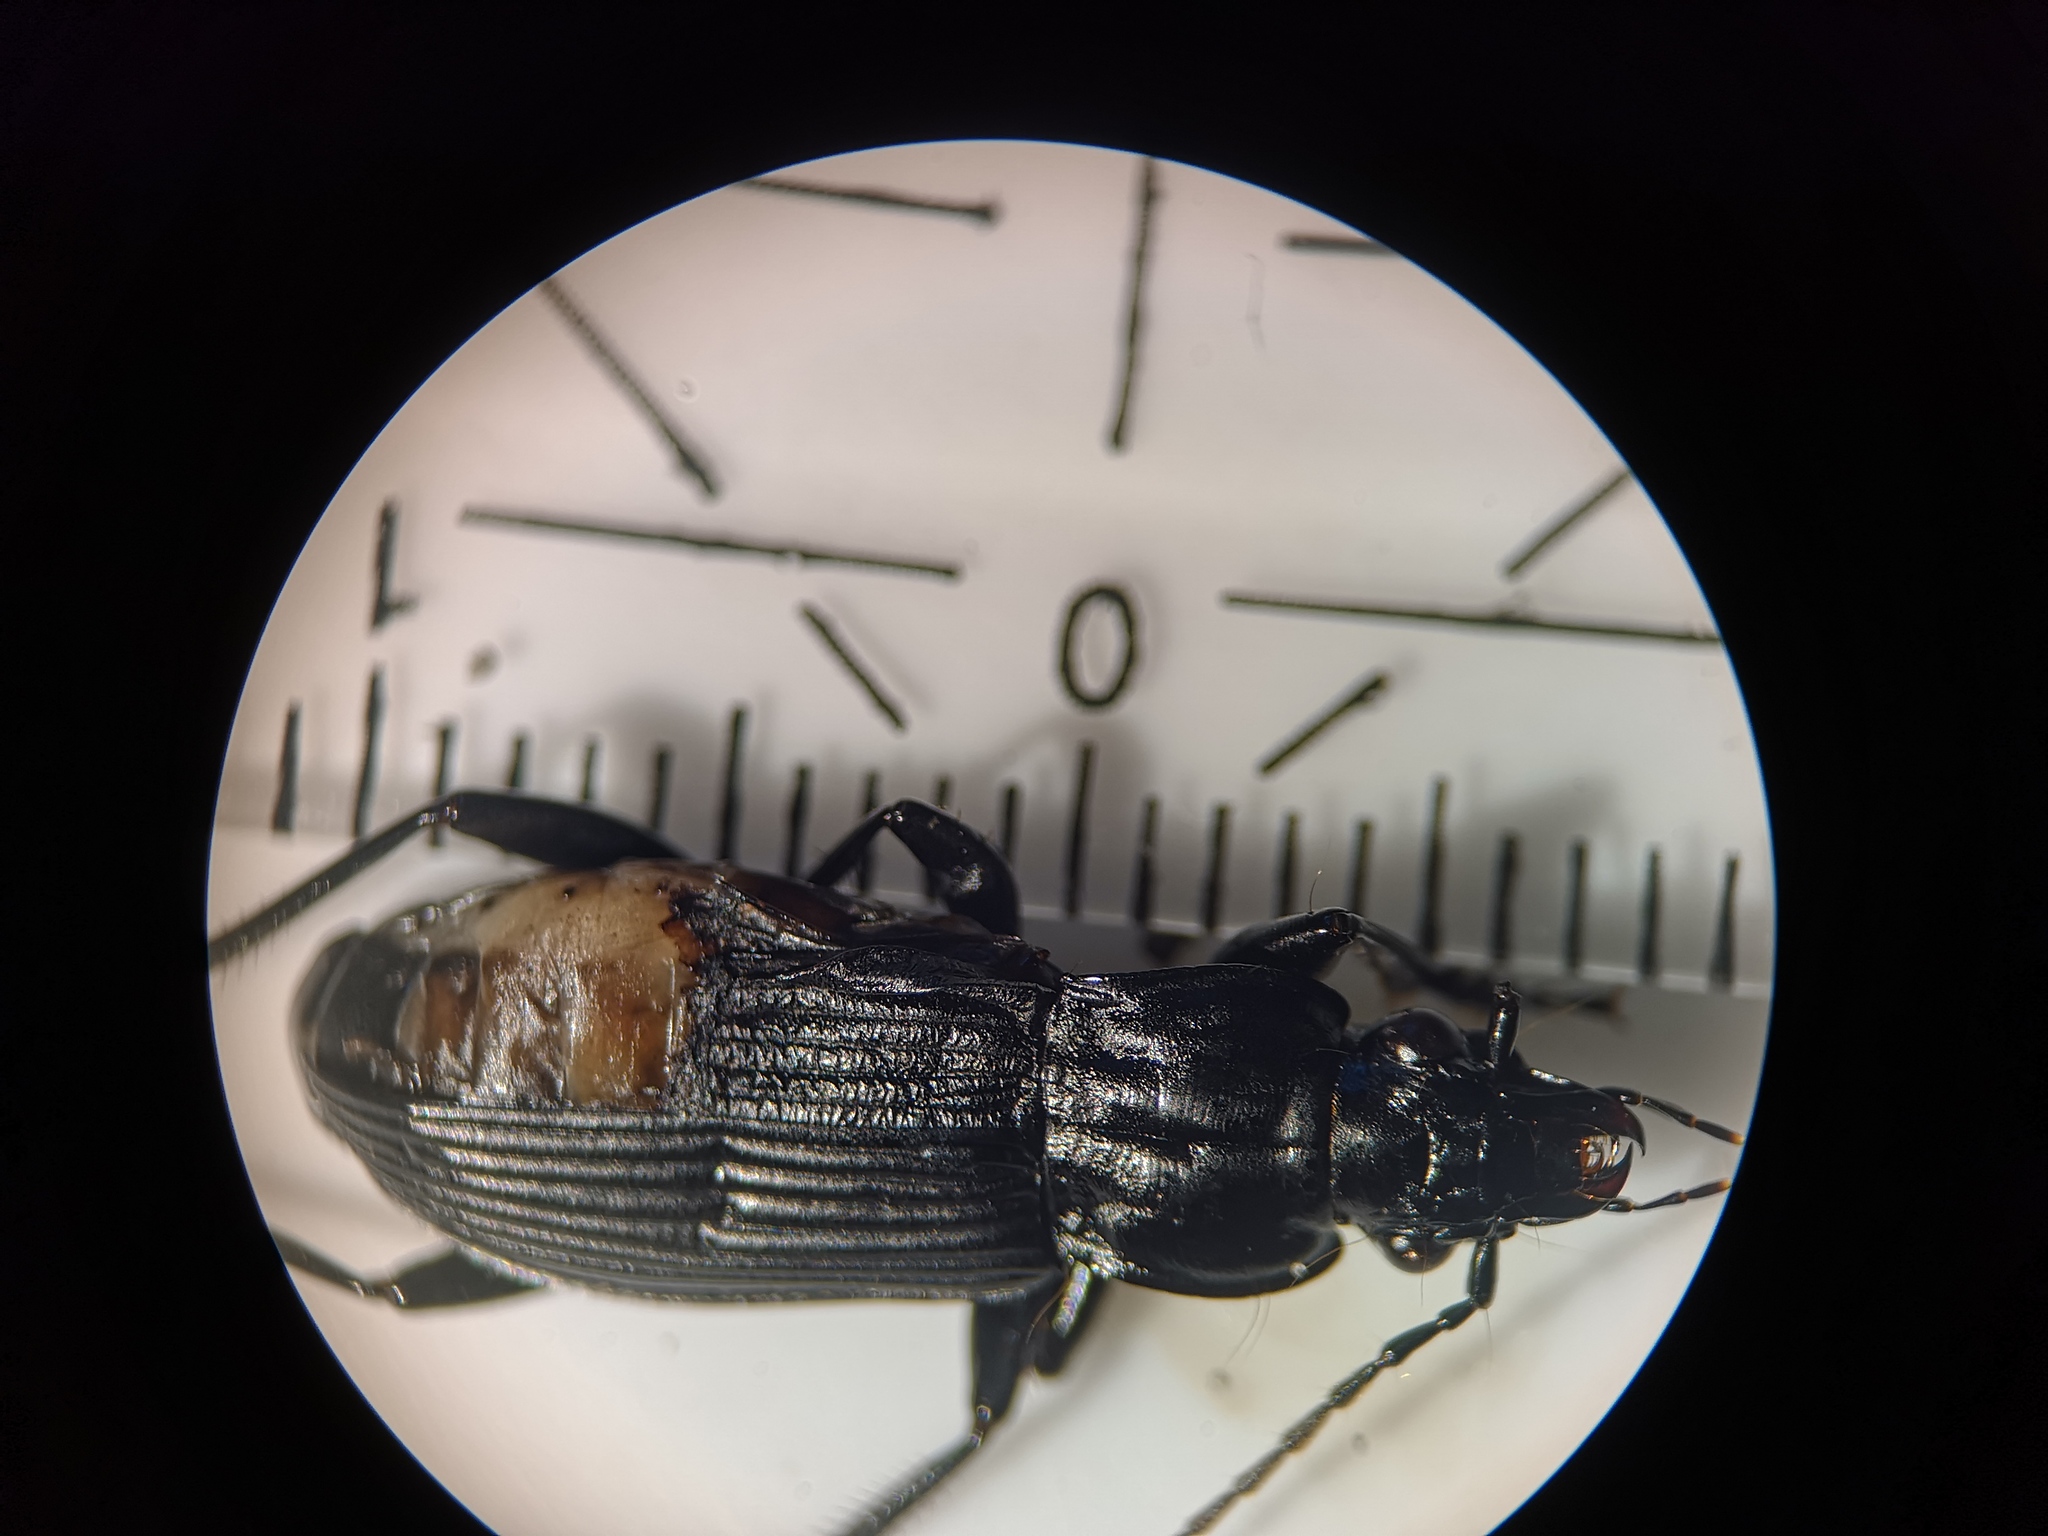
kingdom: Animalia
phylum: Arthropoda
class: Insecta
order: Coleoptera
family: Carabidae
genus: Pterostichus
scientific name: Pterostichus niger
